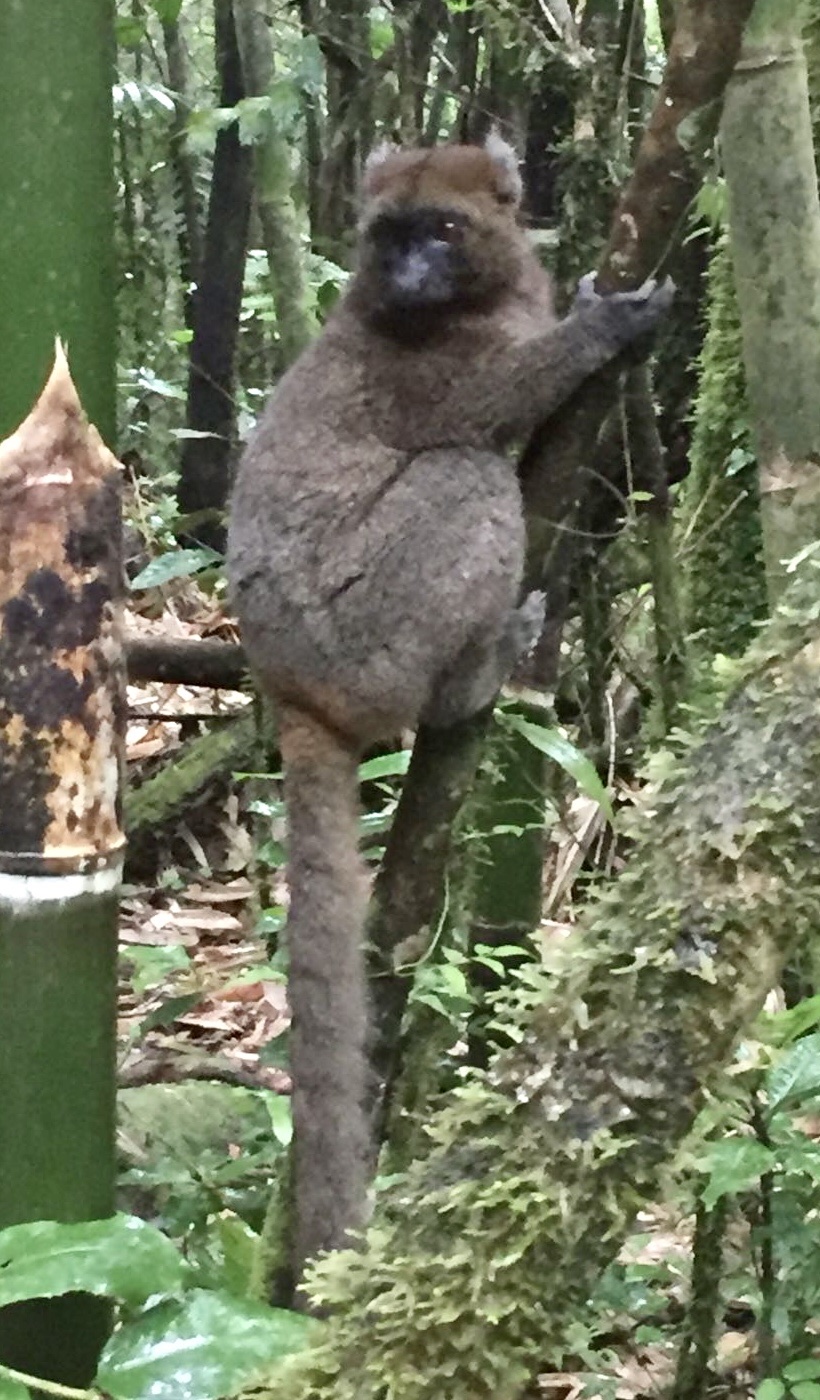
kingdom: Animalia
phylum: Chordata
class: Mammalia
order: Primates
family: Lemuridae
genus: Prolemur
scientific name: Prolemur simus
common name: Greater bamboo lemur
